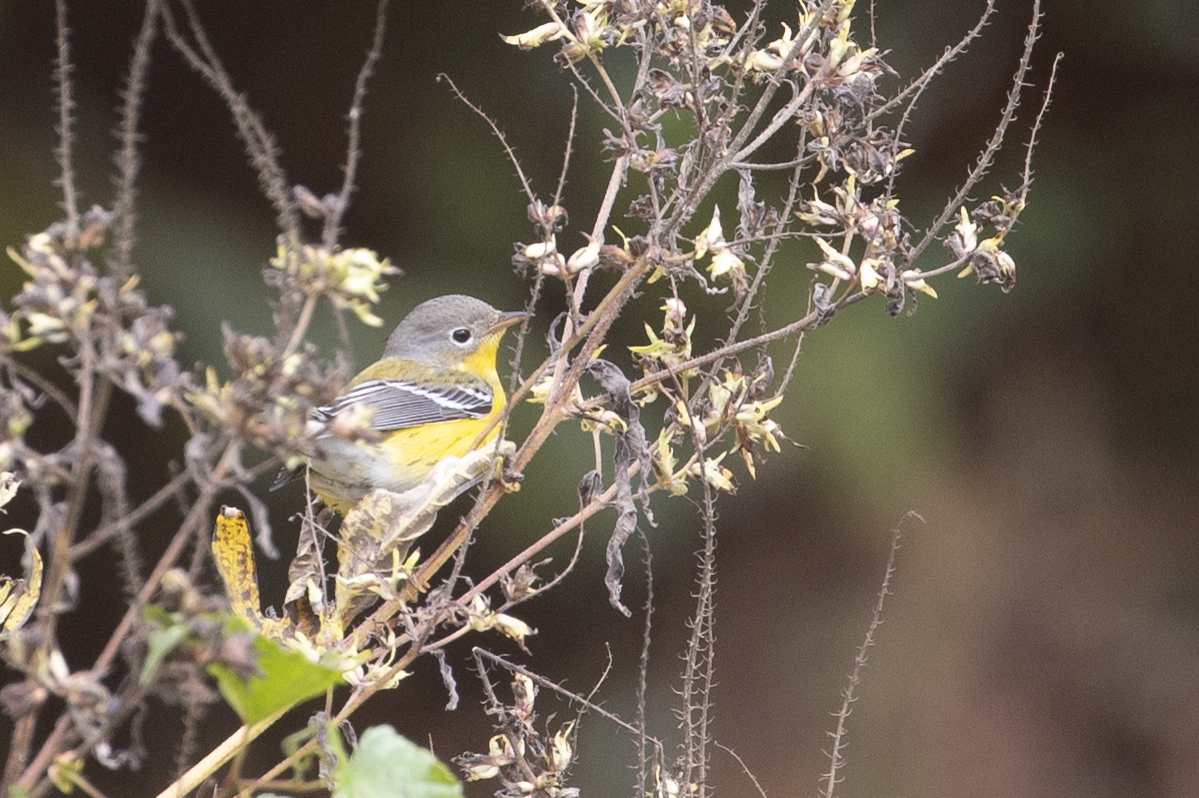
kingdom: Animalia
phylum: Chordata
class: Aves
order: Passeriformes
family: Parulidae
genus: Setophaga
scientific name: Setophaga magnolia
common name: Magnolia warbler
